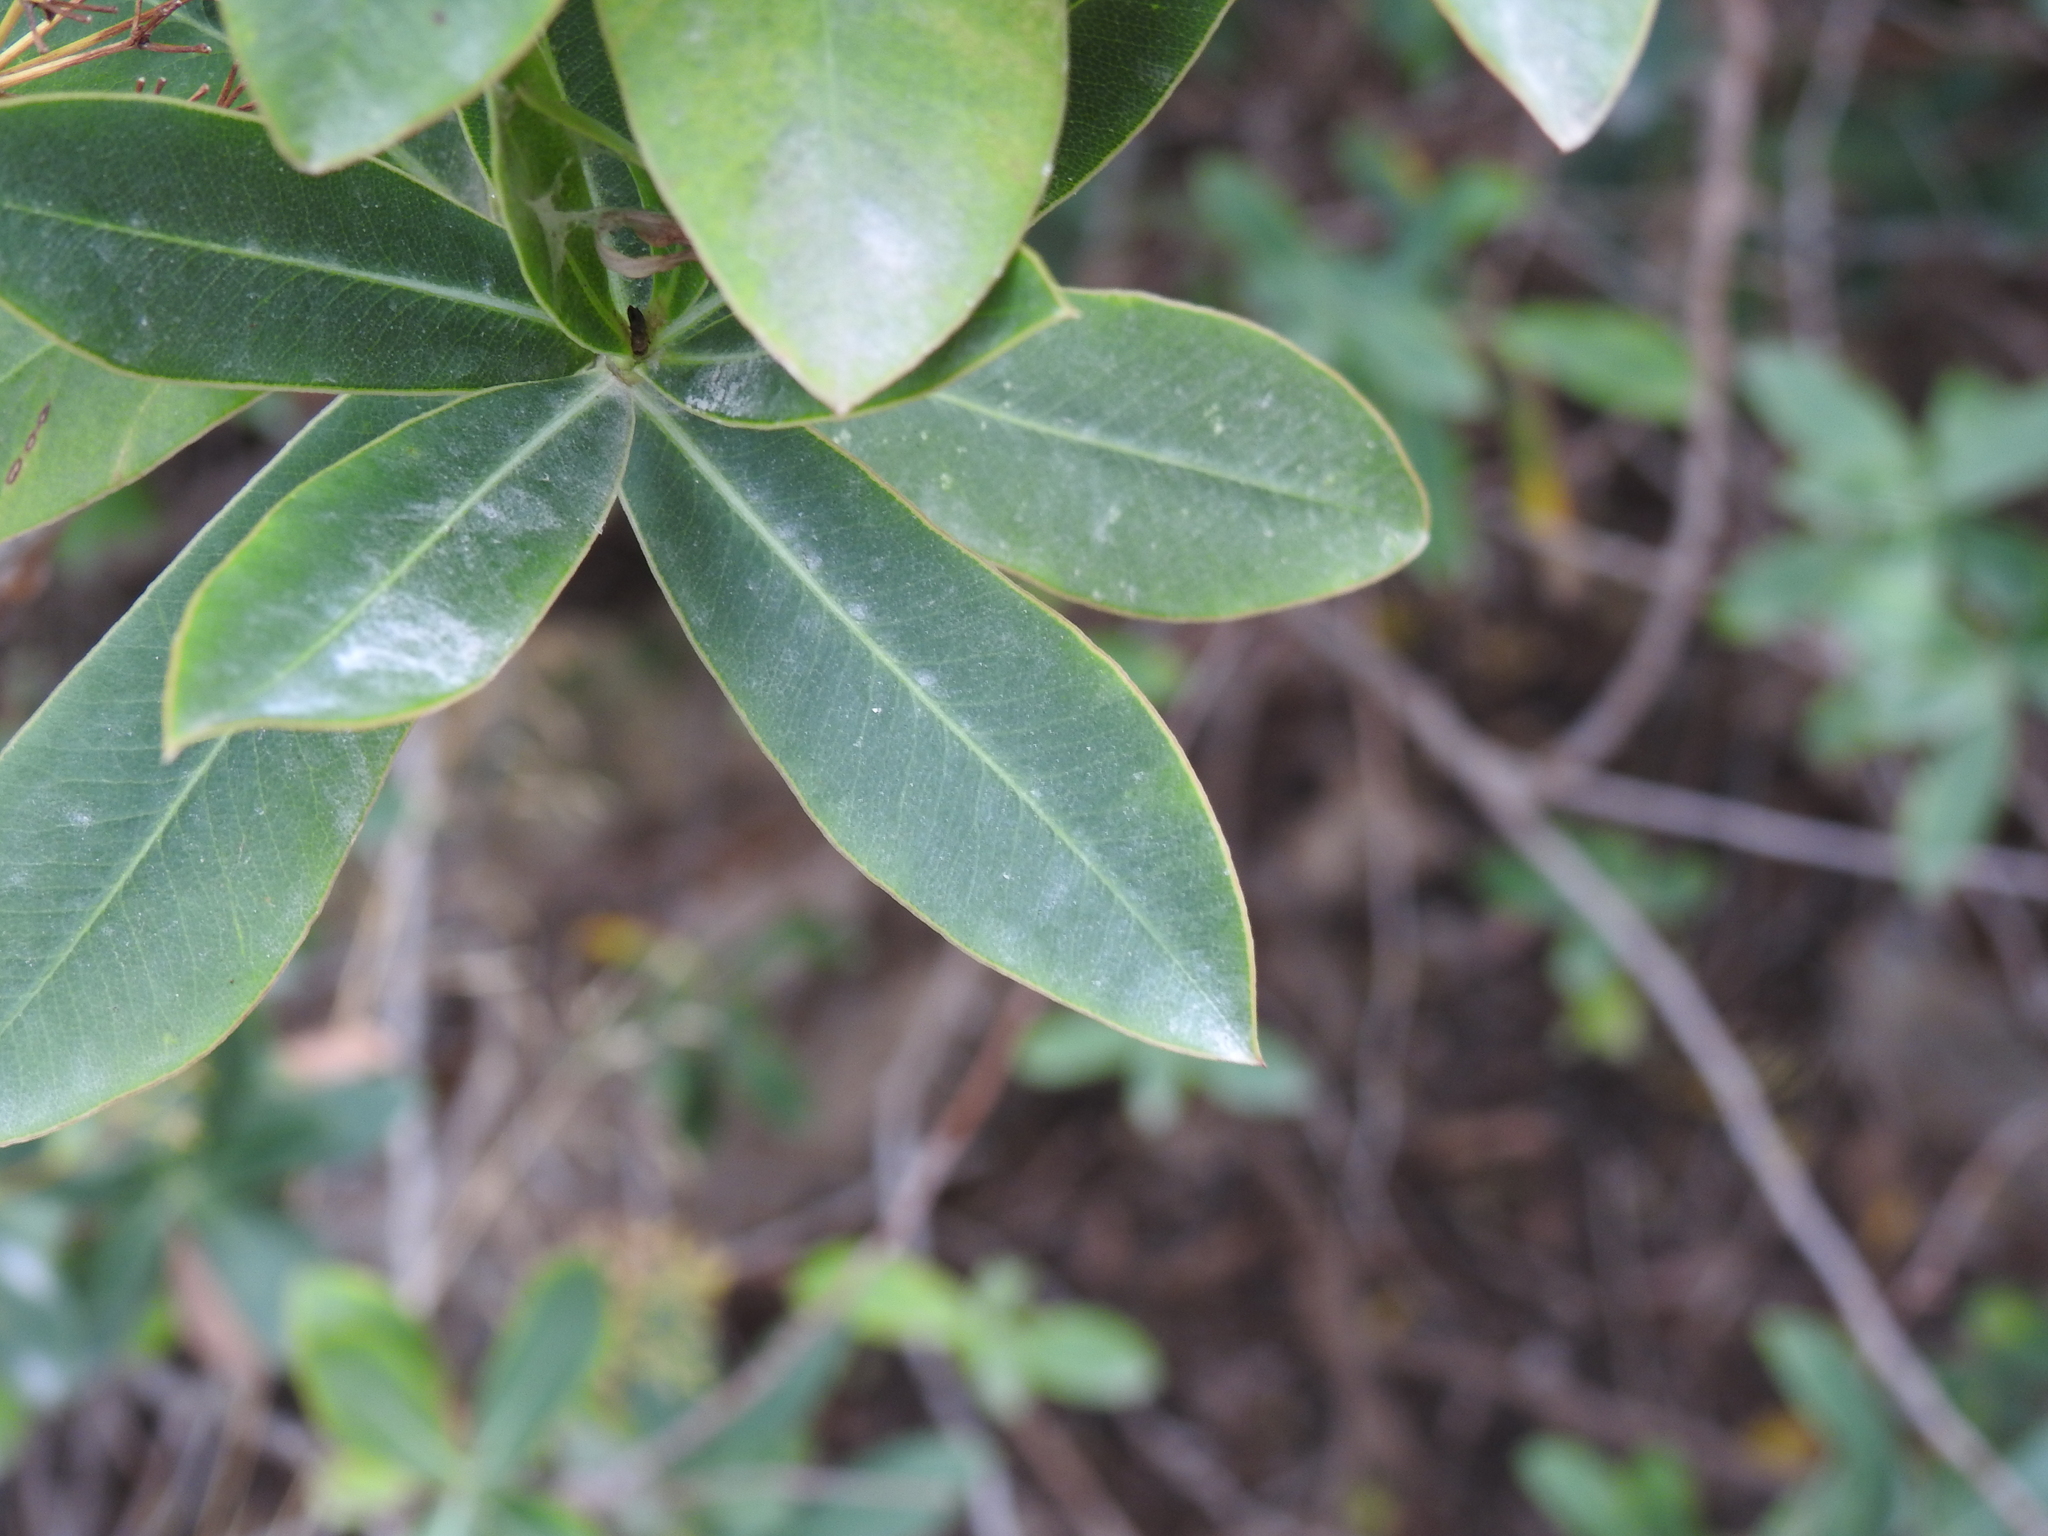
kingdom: Plantae
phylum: Tracheophyta
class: Magnoliopsida
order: Apiales
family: Apiaceae
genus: Bupleurum
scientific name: Bupleurum fruticosum
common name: Shrubby hare's-ear
